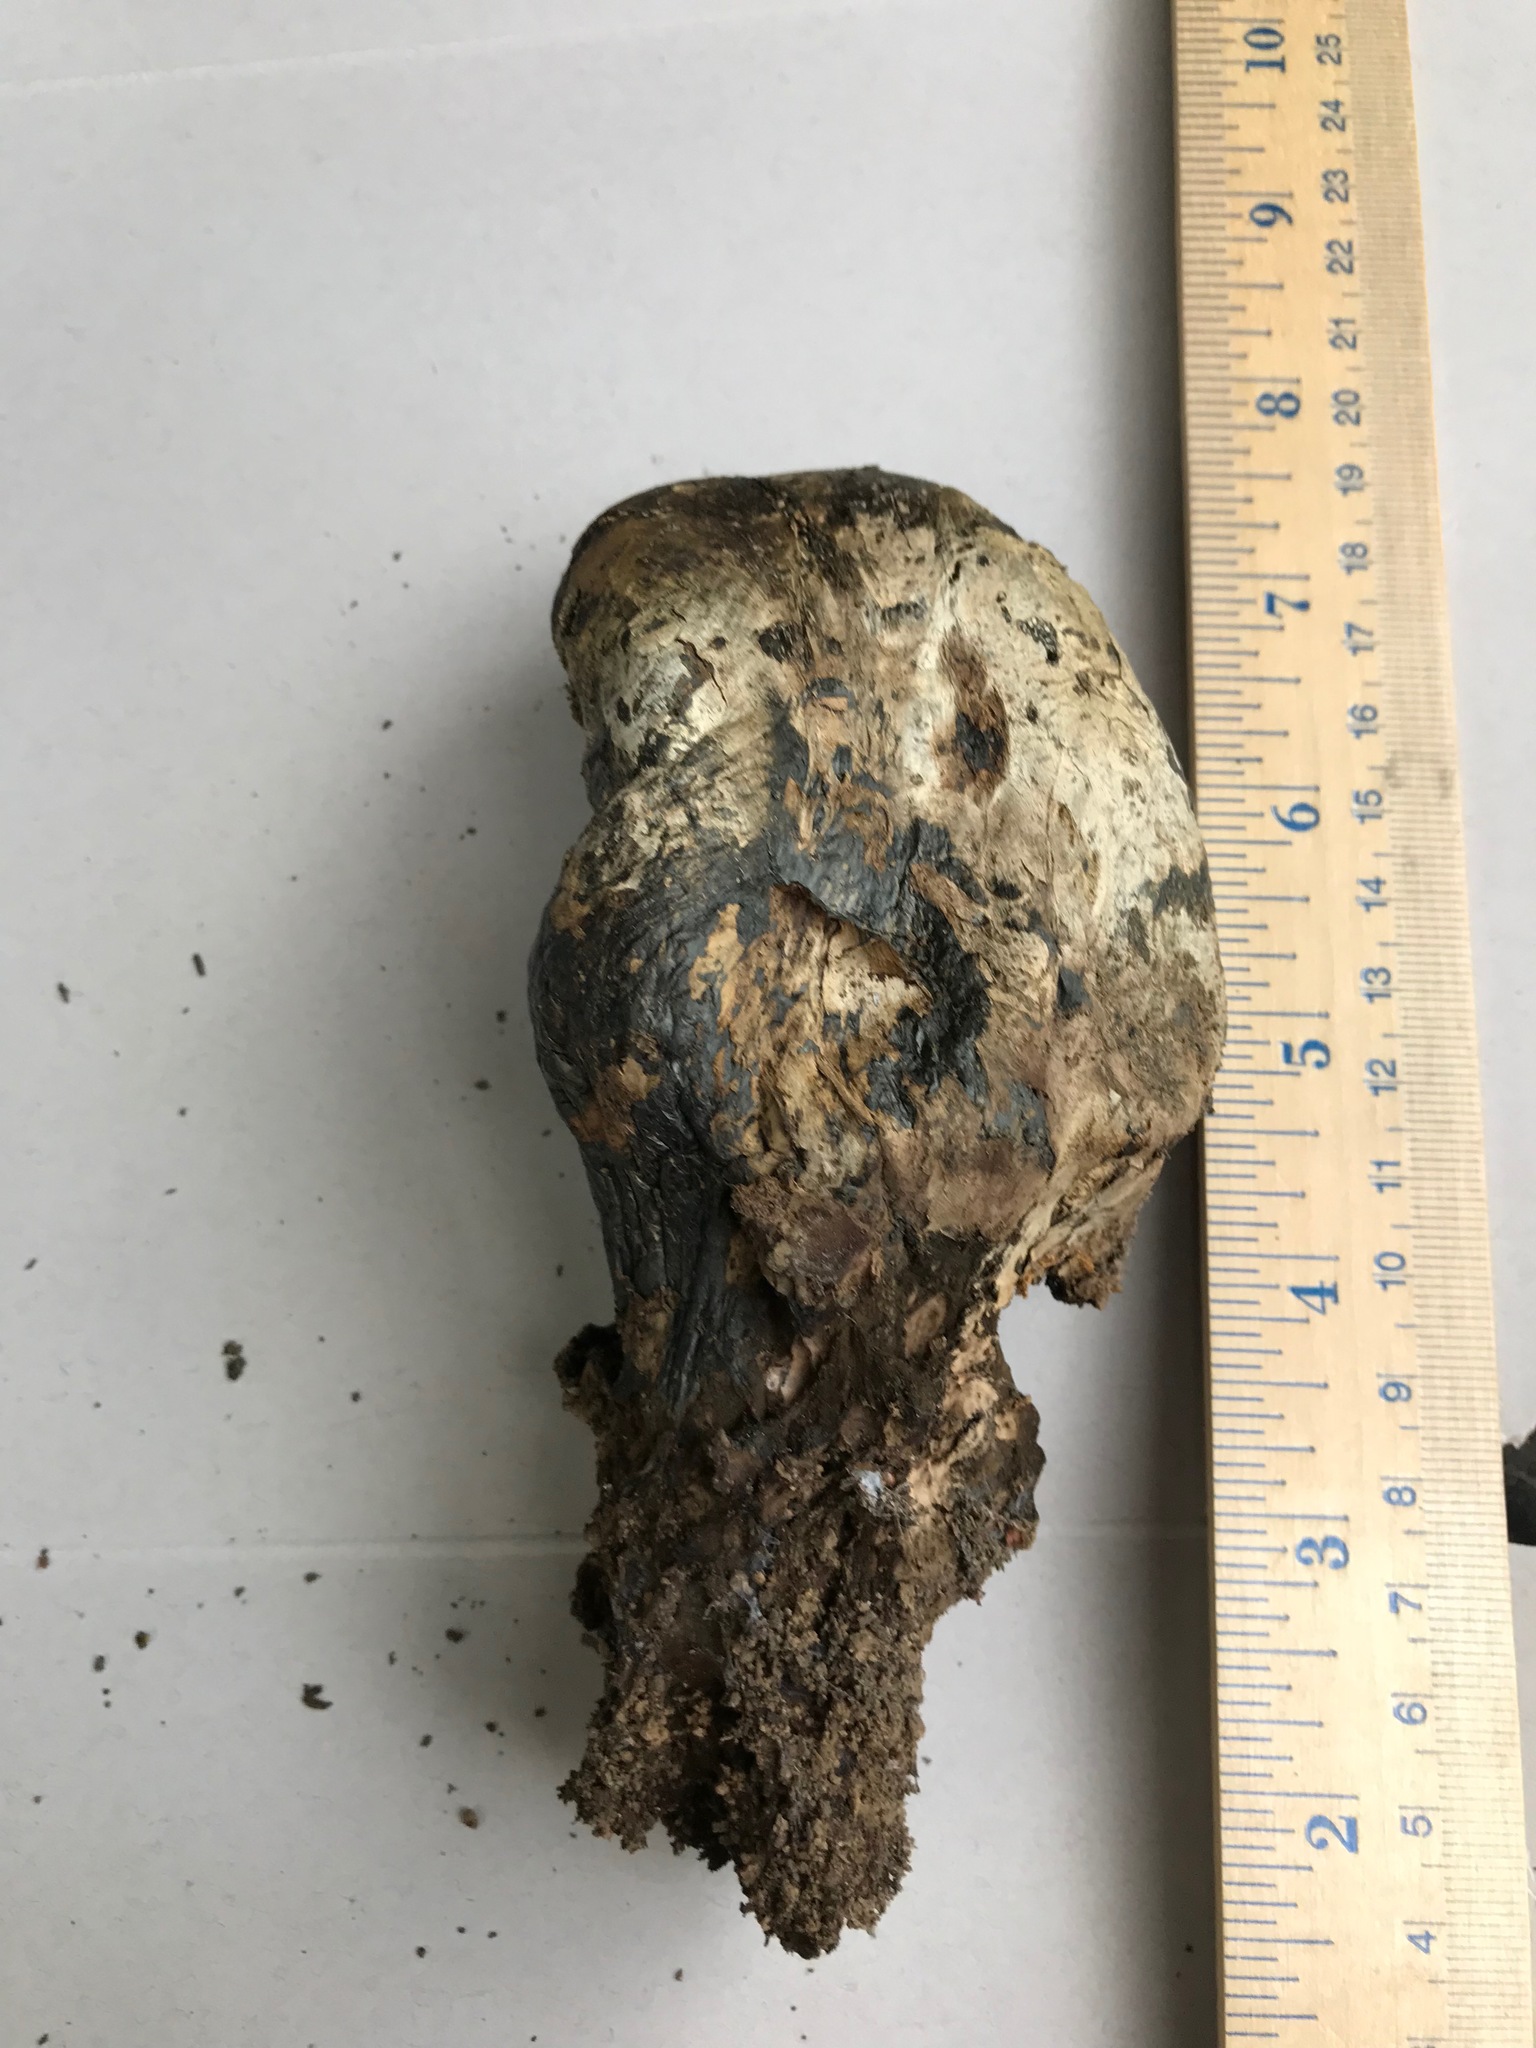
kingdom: Fungi
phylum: Basidiomycota
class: Agaricomycetes
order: Boletales
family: Sclerodermataceae
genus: Pisolithus
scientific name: Pisolithus tinctorius
